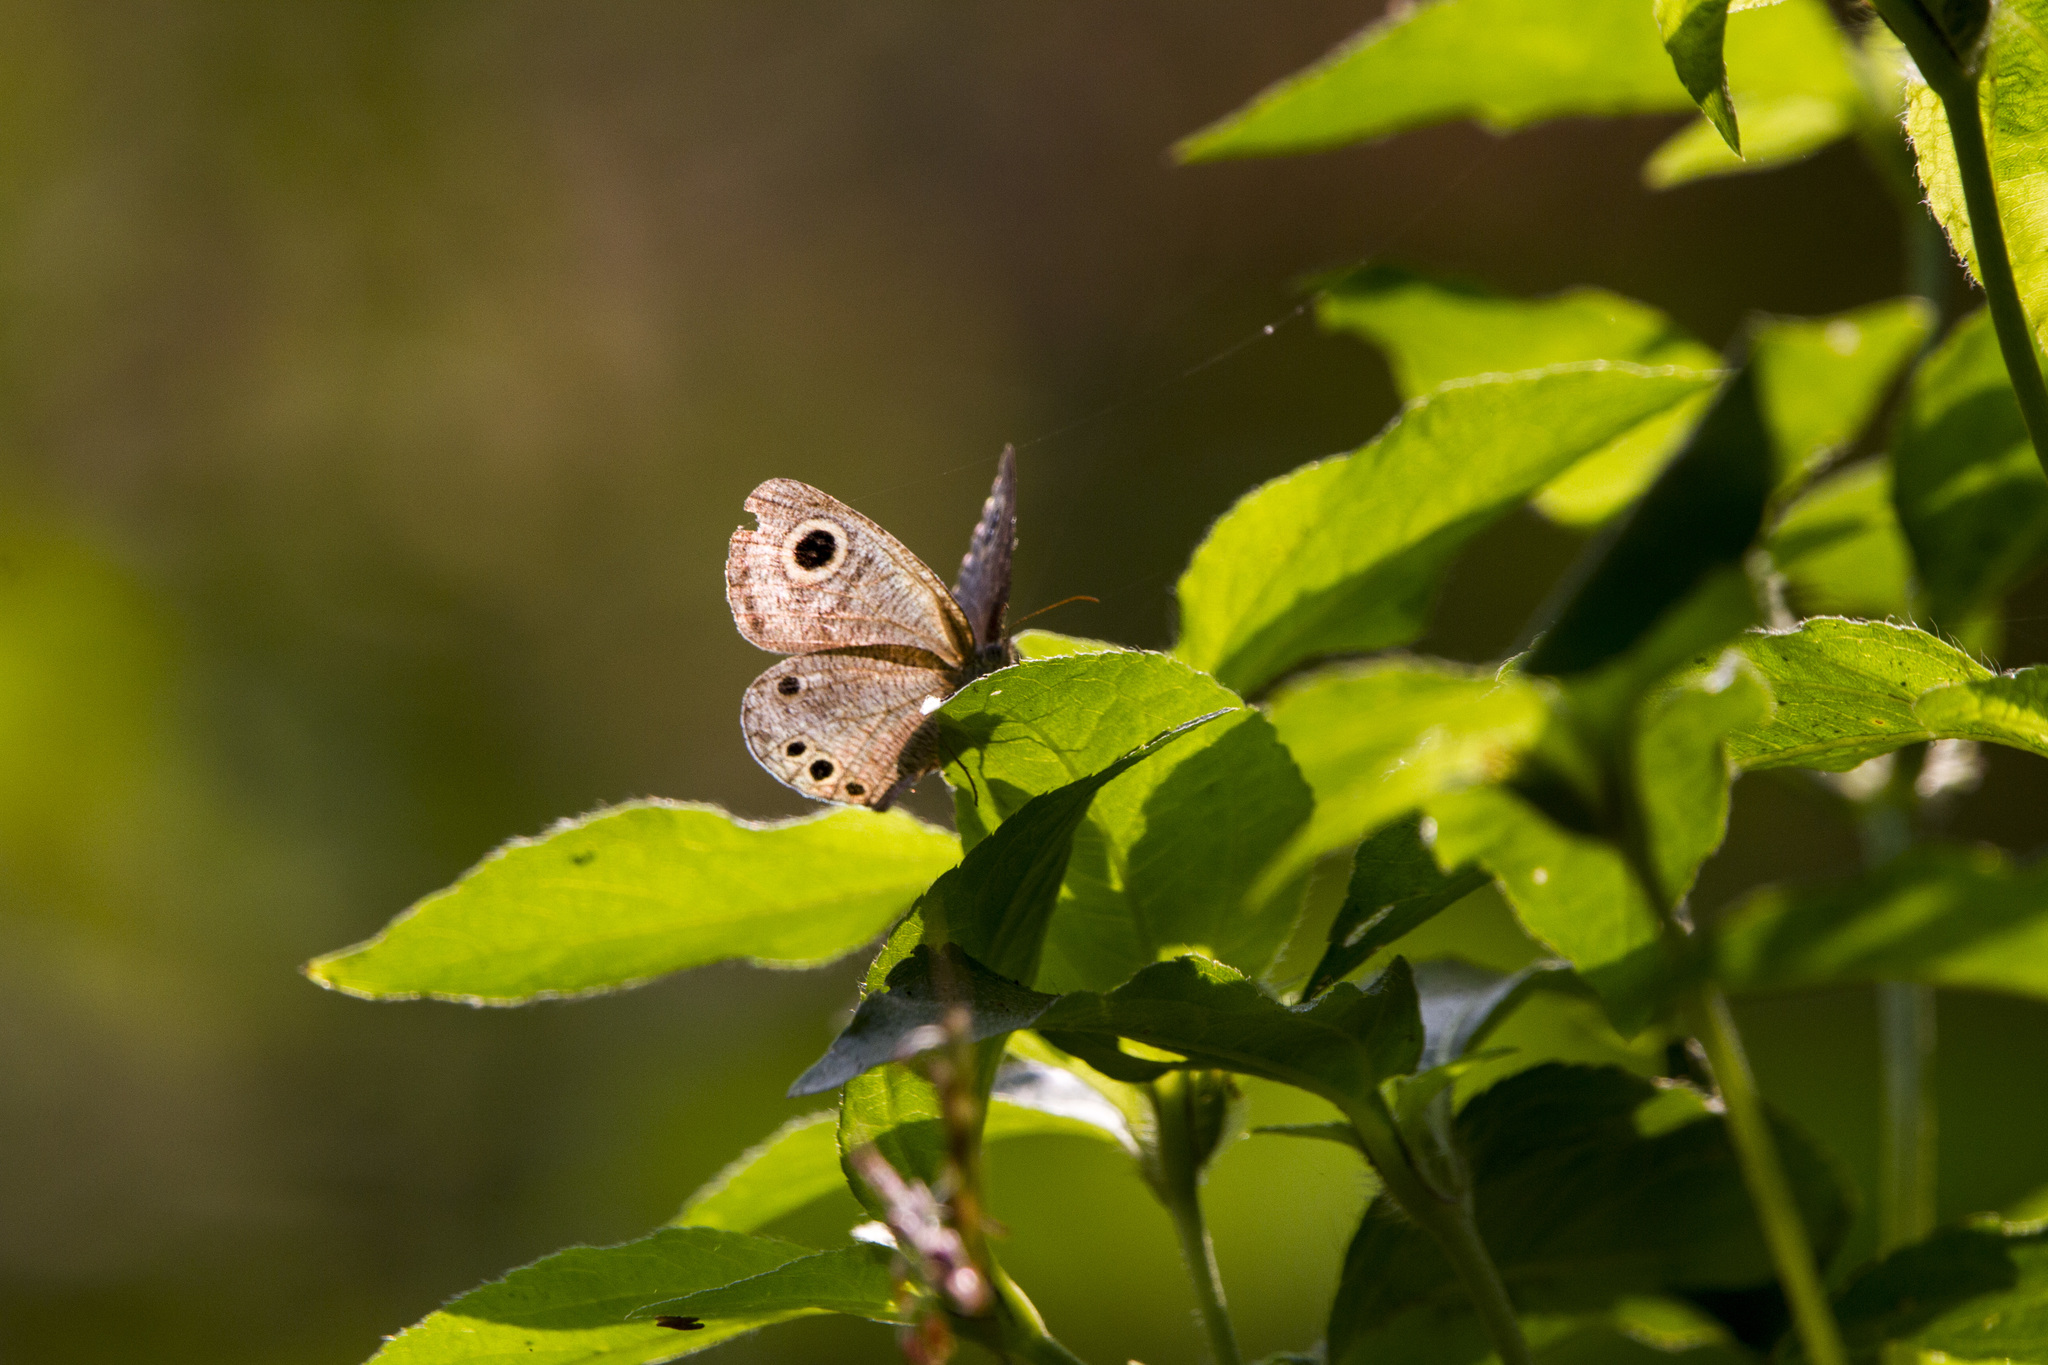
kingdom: Animalia
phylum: Arthropoda
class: Insecta
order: Lepidoptera
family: Nymphalidae
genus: Ypthima
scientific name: Ypthima baldus
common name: Common five-ring
